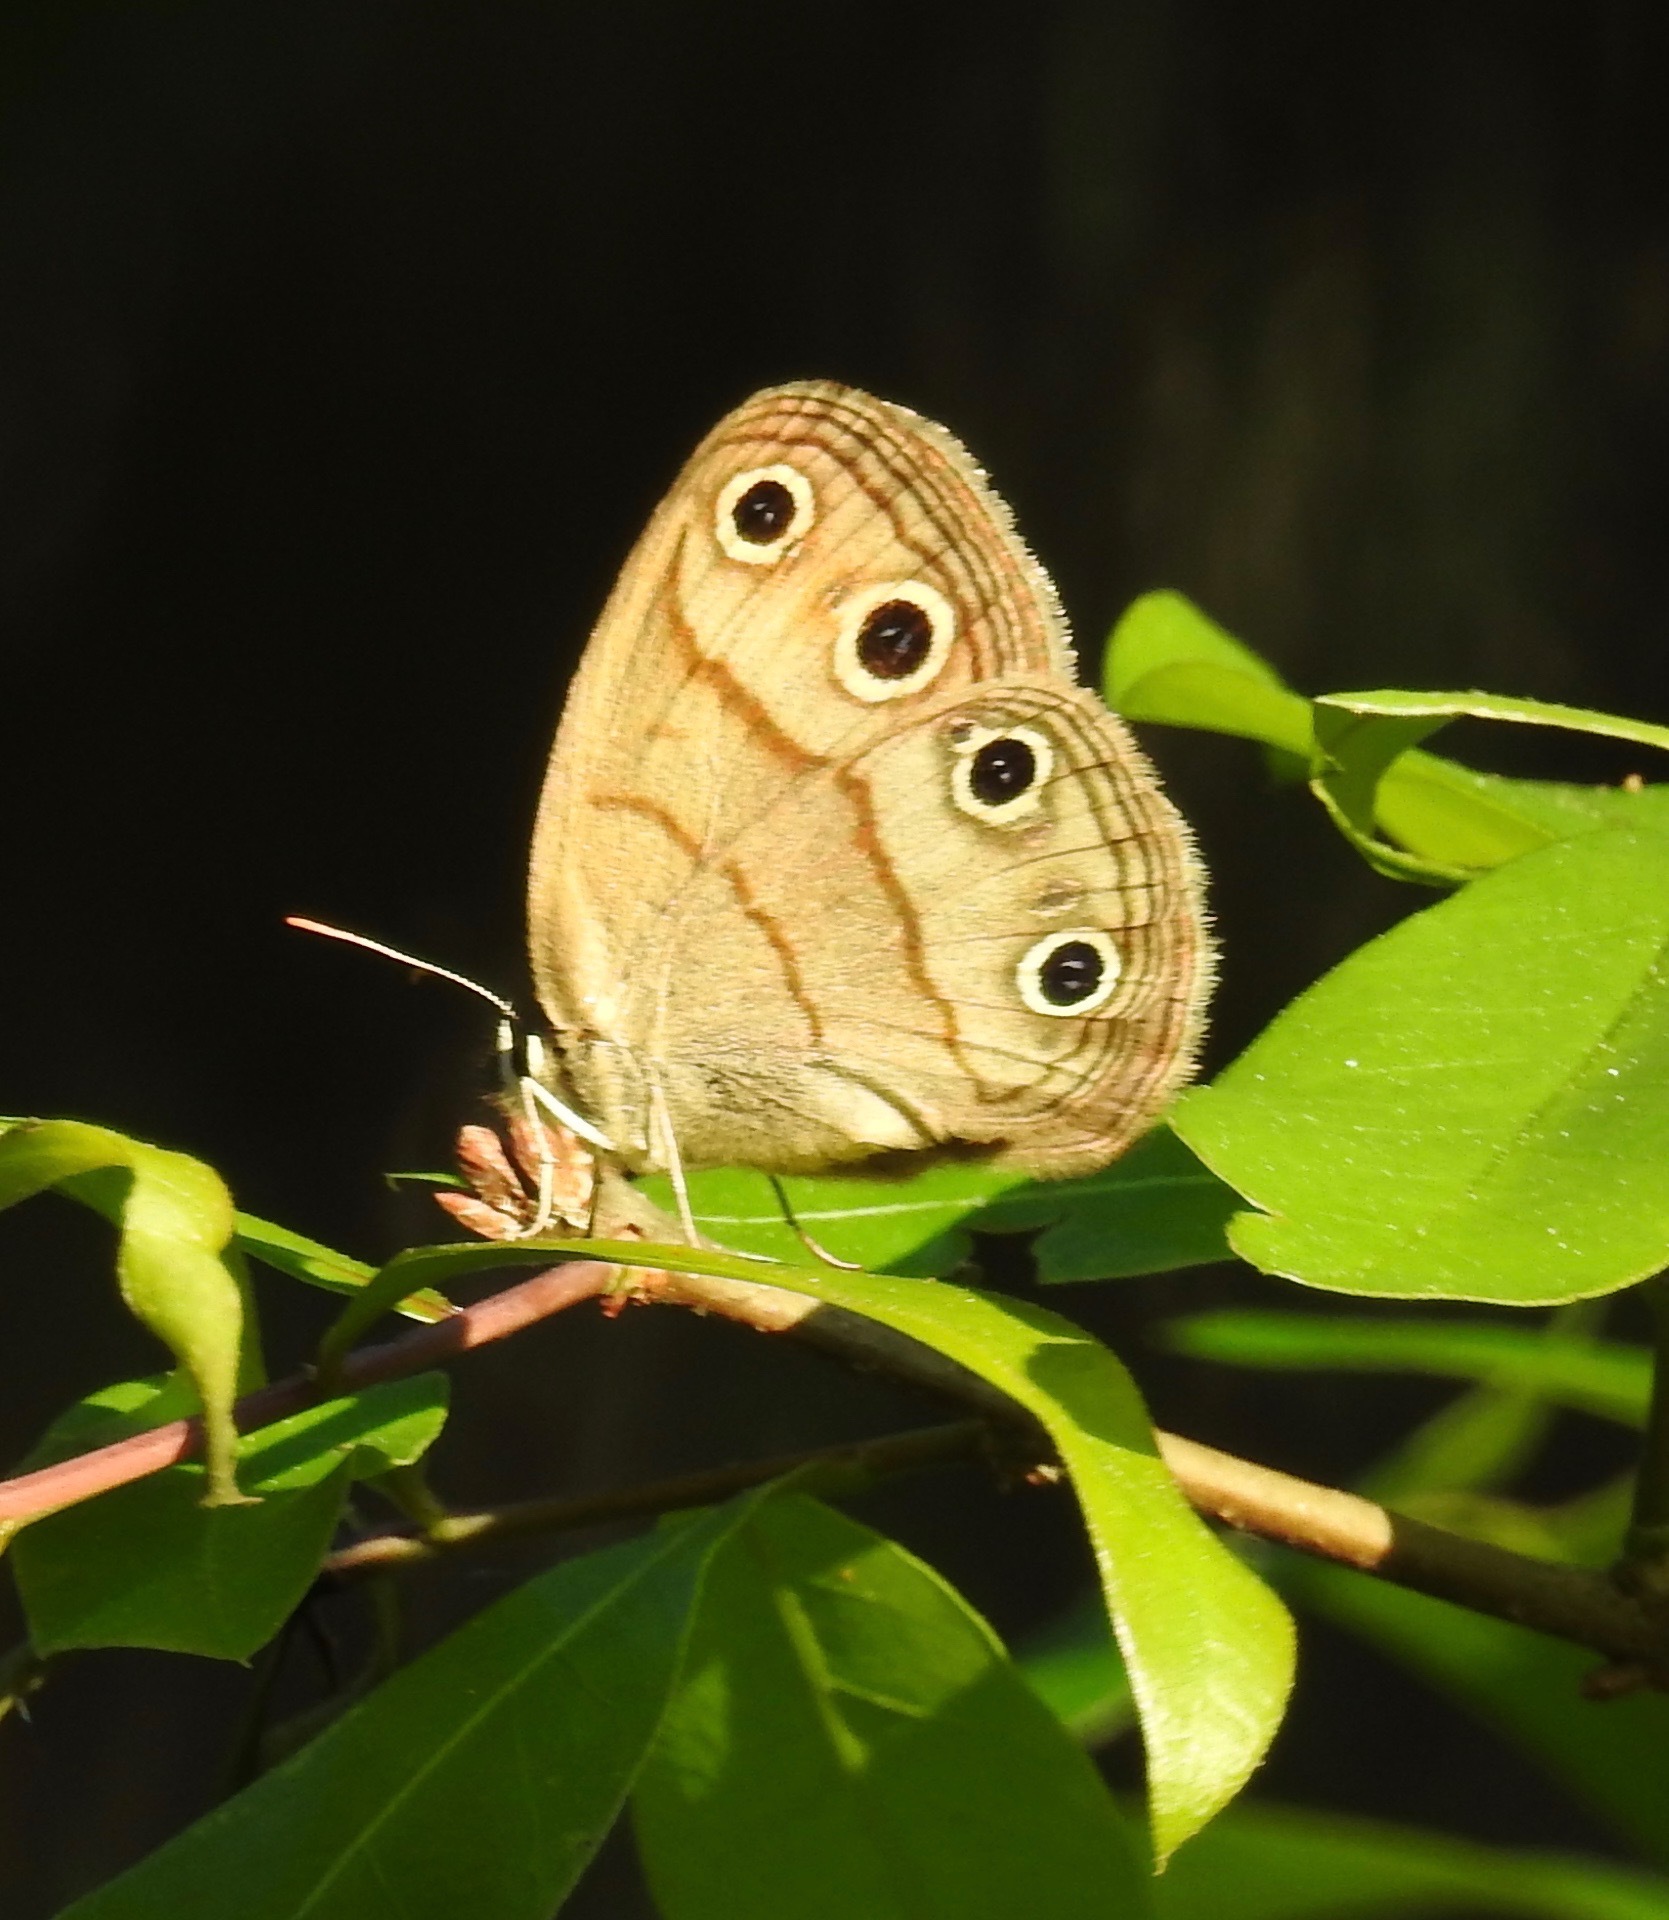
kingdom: Animalia
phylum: Arthropoda
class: Insecta
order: Lepidoptera
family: Nymphalidae
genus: Euptychia
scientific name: Euptychia cymela
